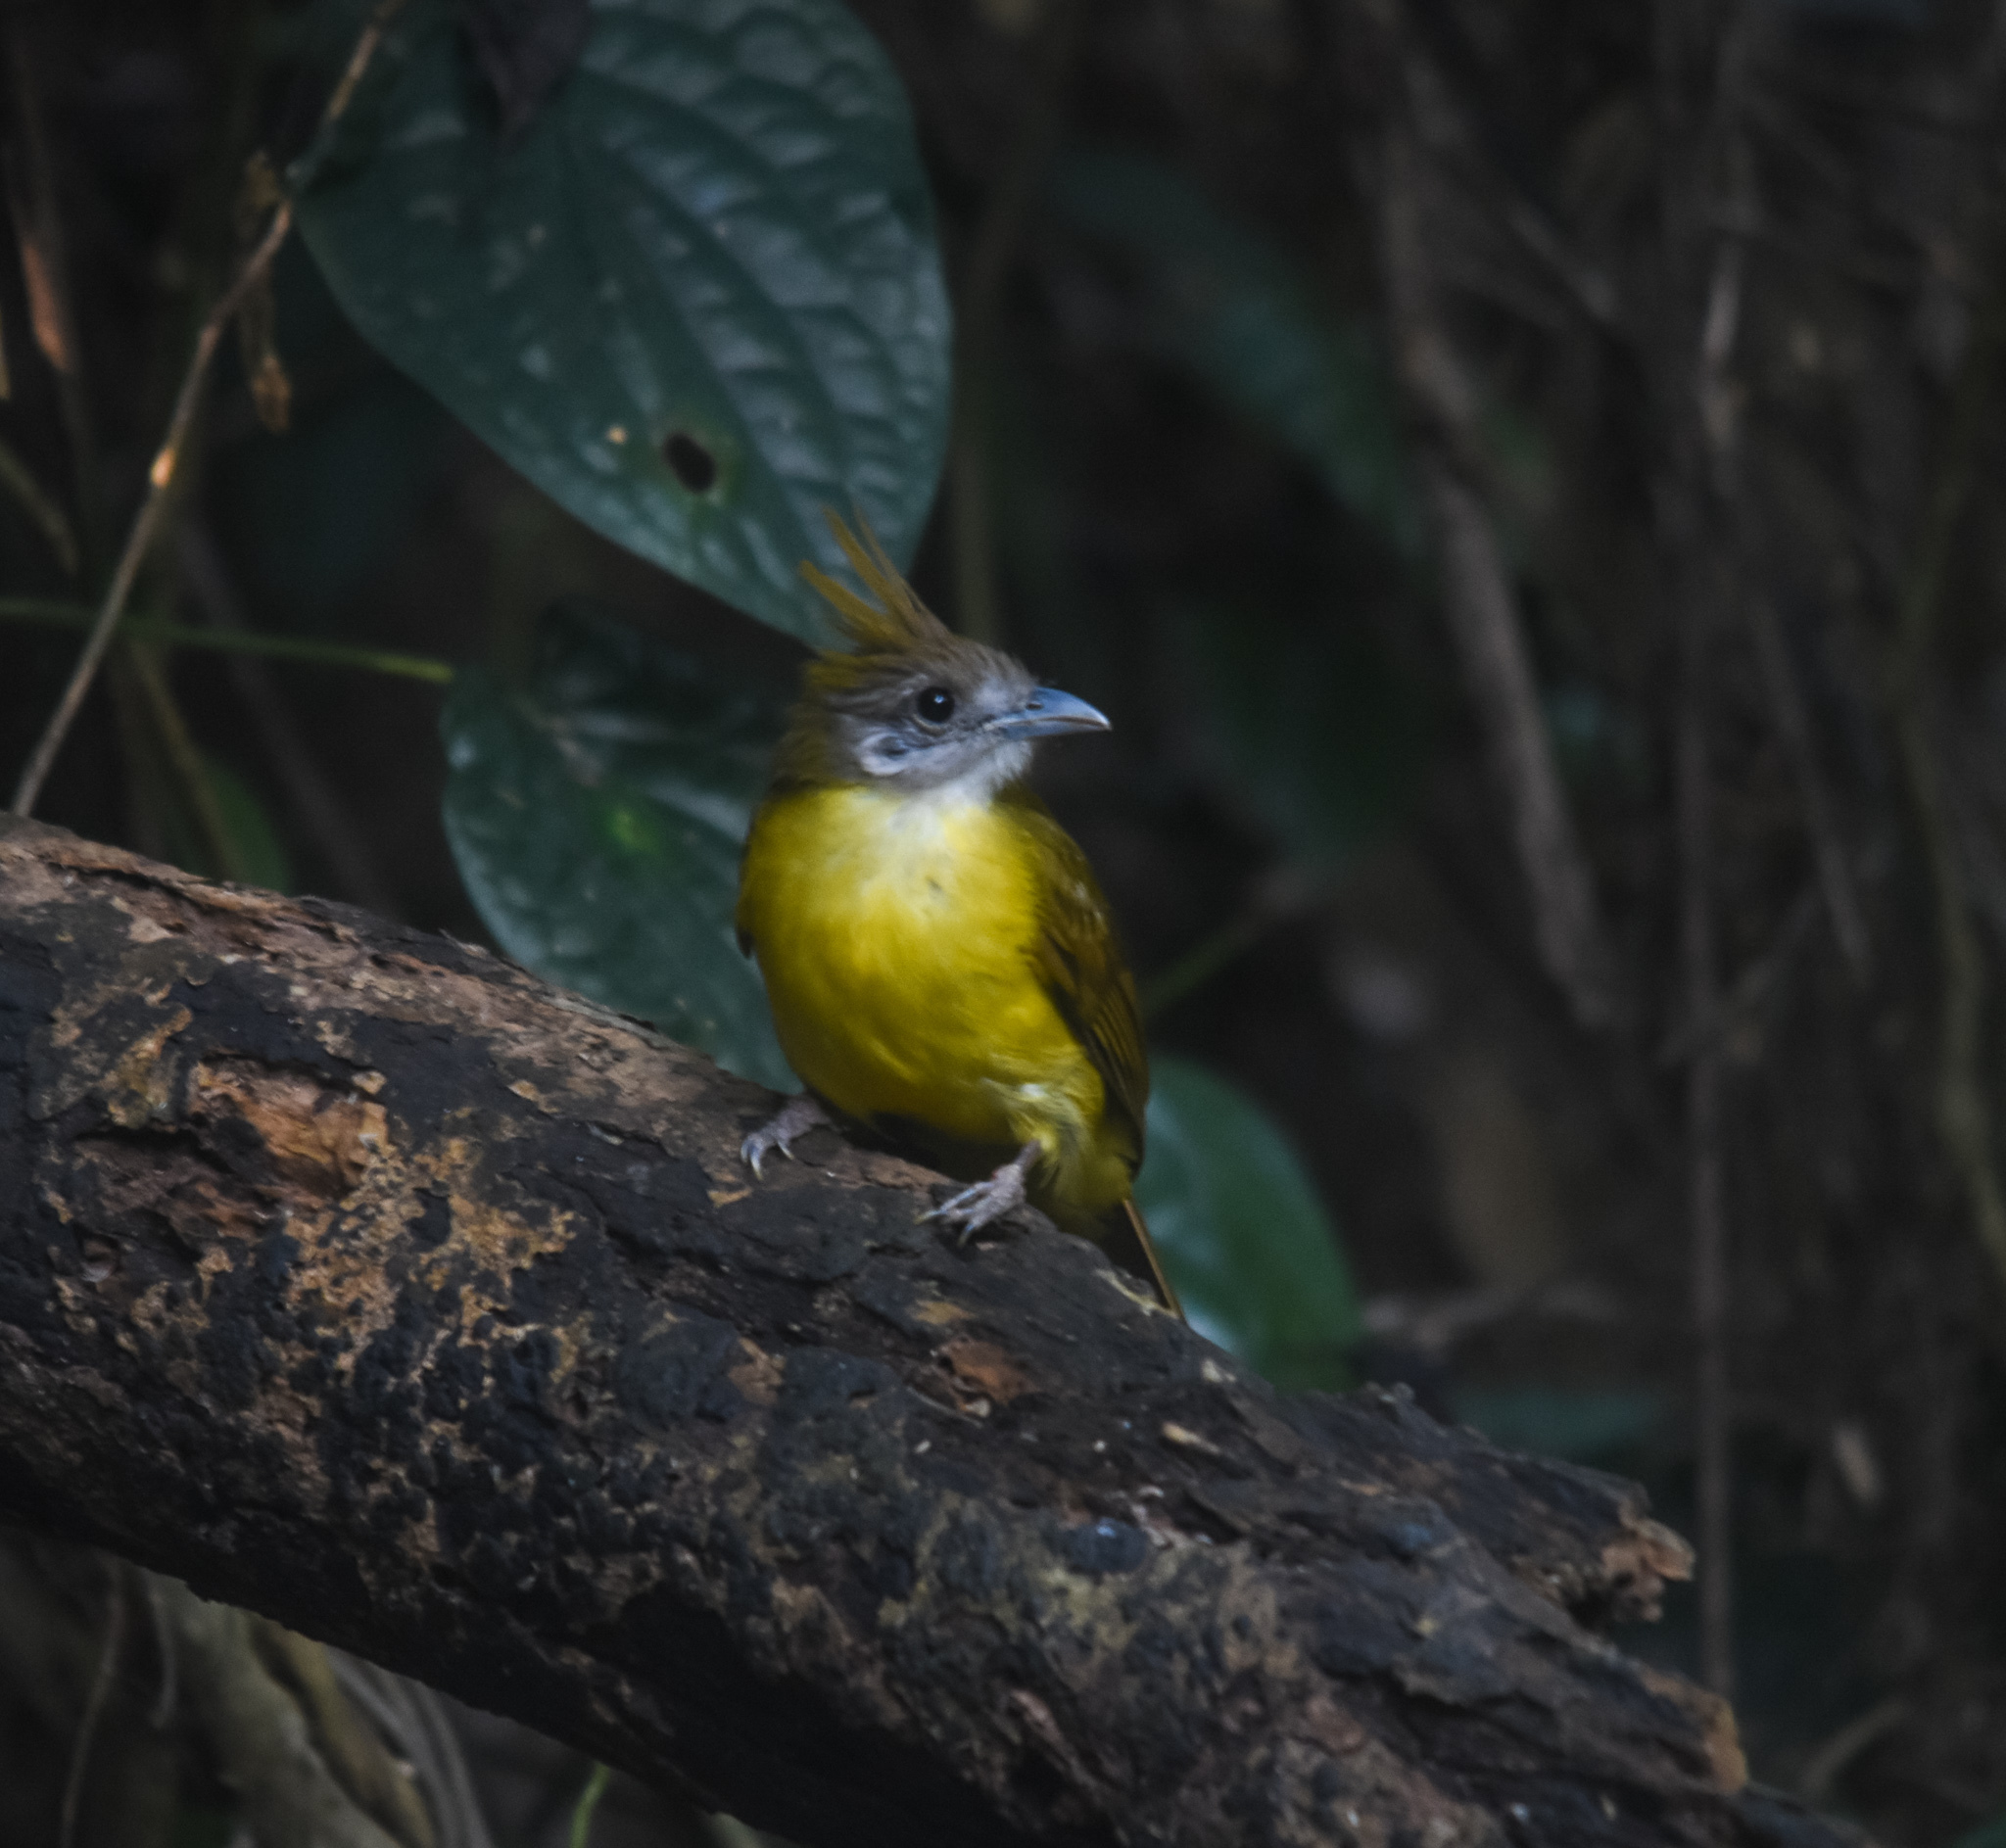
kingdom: Animalia
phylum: Chordata
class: Aves
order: Passeriformes
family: Pycnonotidae
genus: Alophoixus
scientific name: Alophoixus flaveolus
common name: White-throated bulbul
